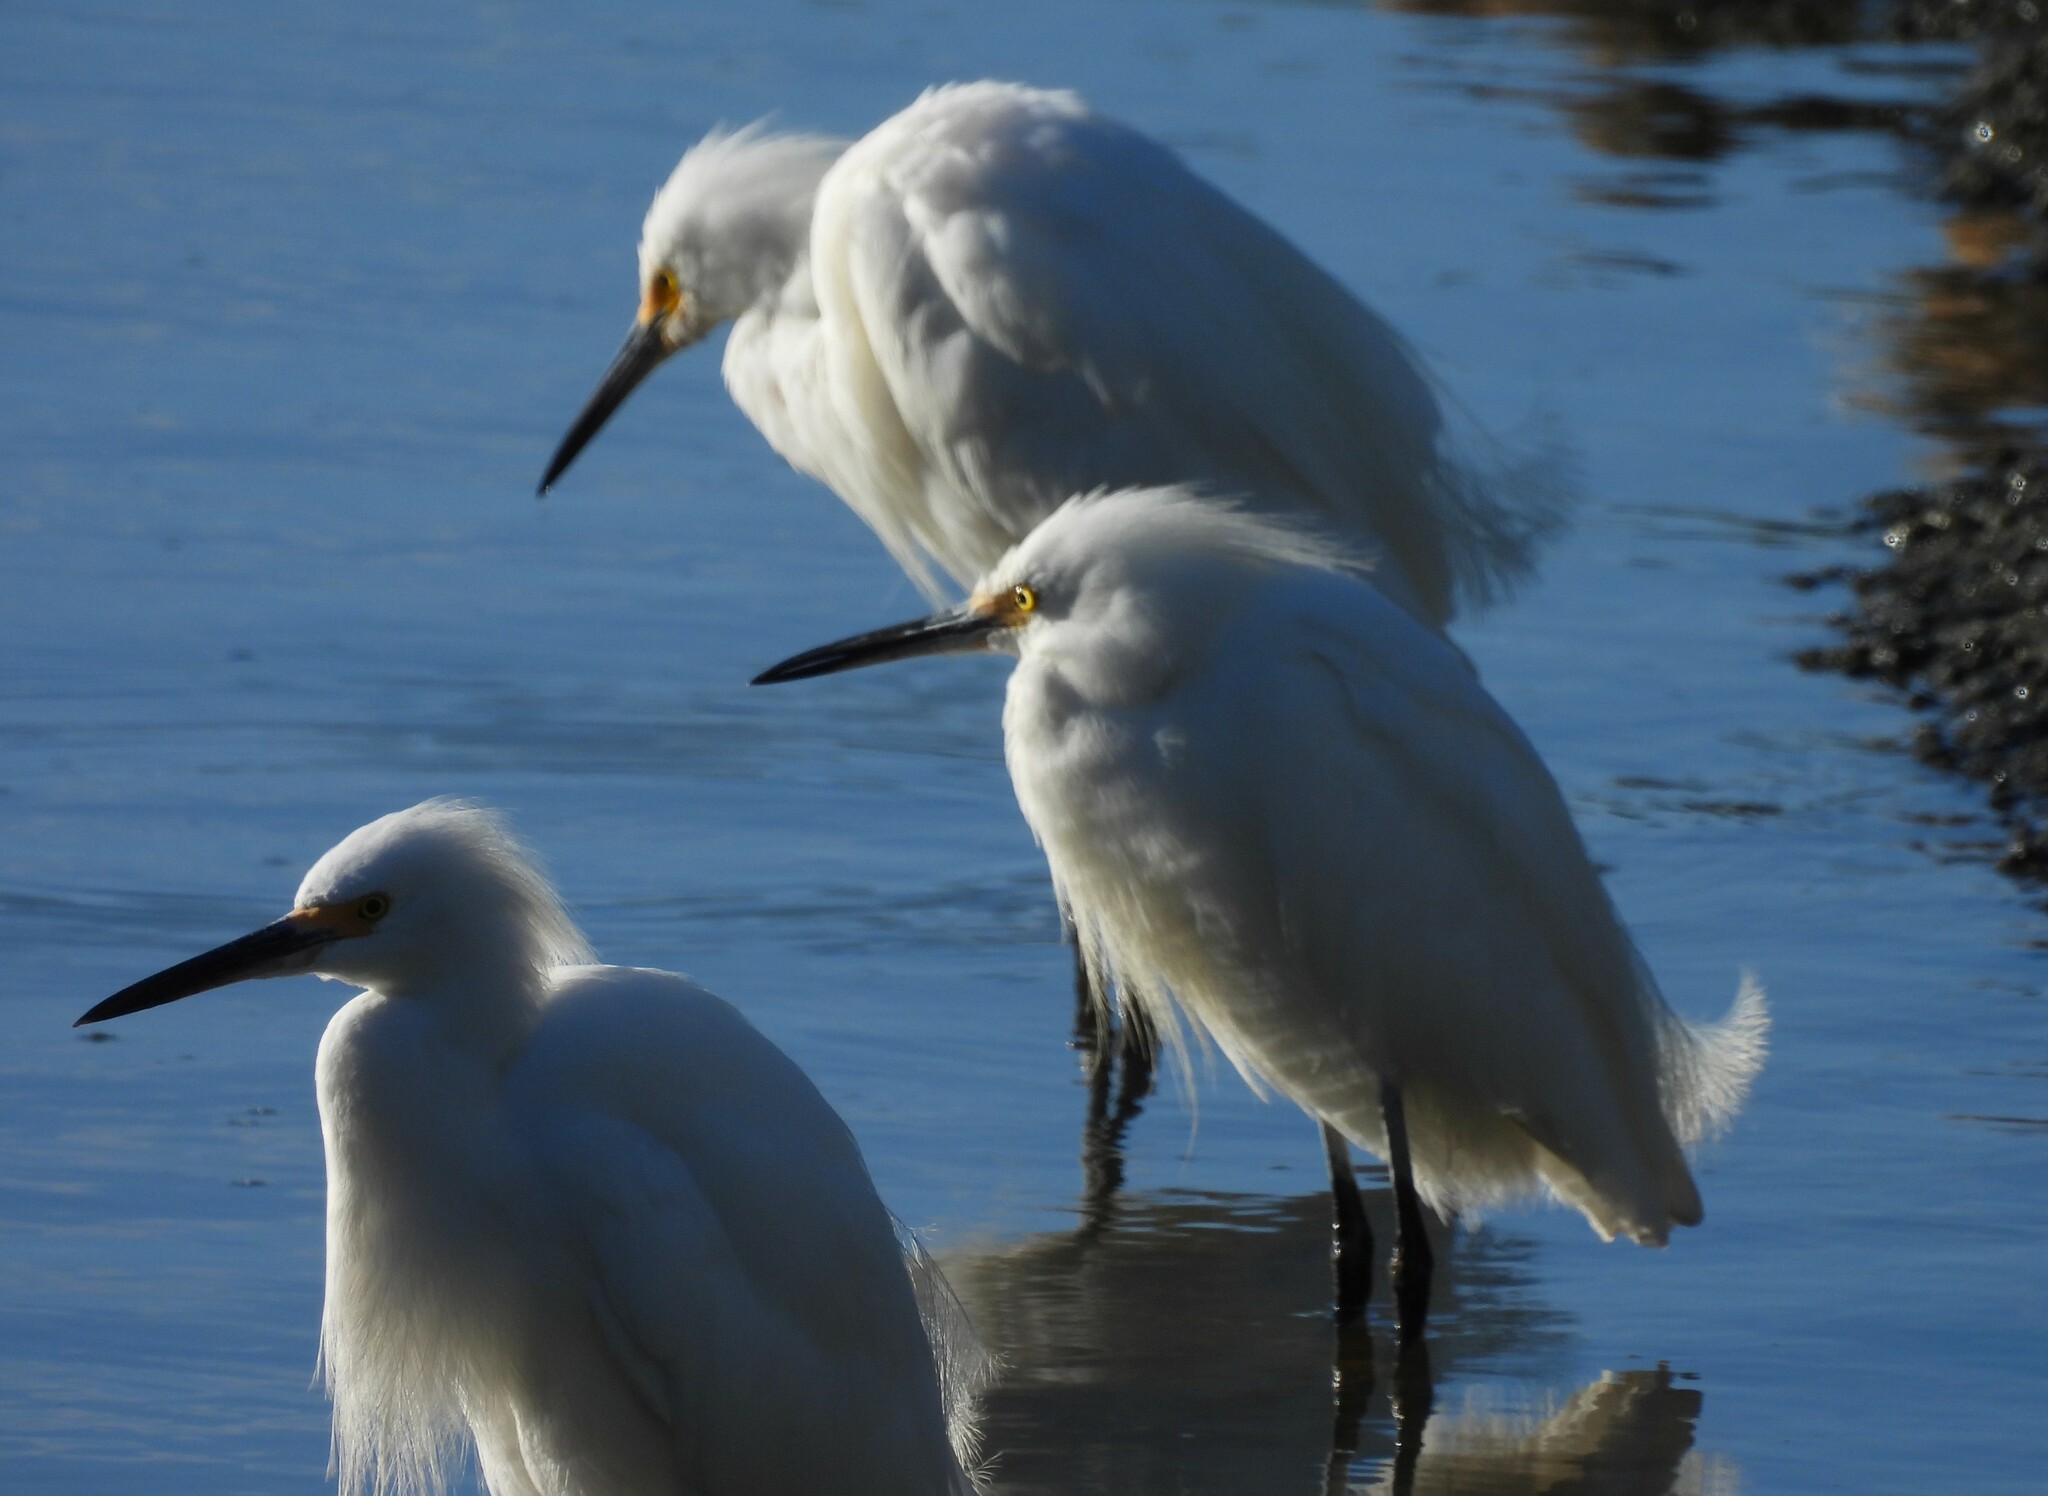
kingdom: Animalia
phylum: Chordata
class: Aves
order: Pelecaniformes
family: Ardeidae
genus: Egretta
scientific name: Egretta thula
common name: Snowy egret
